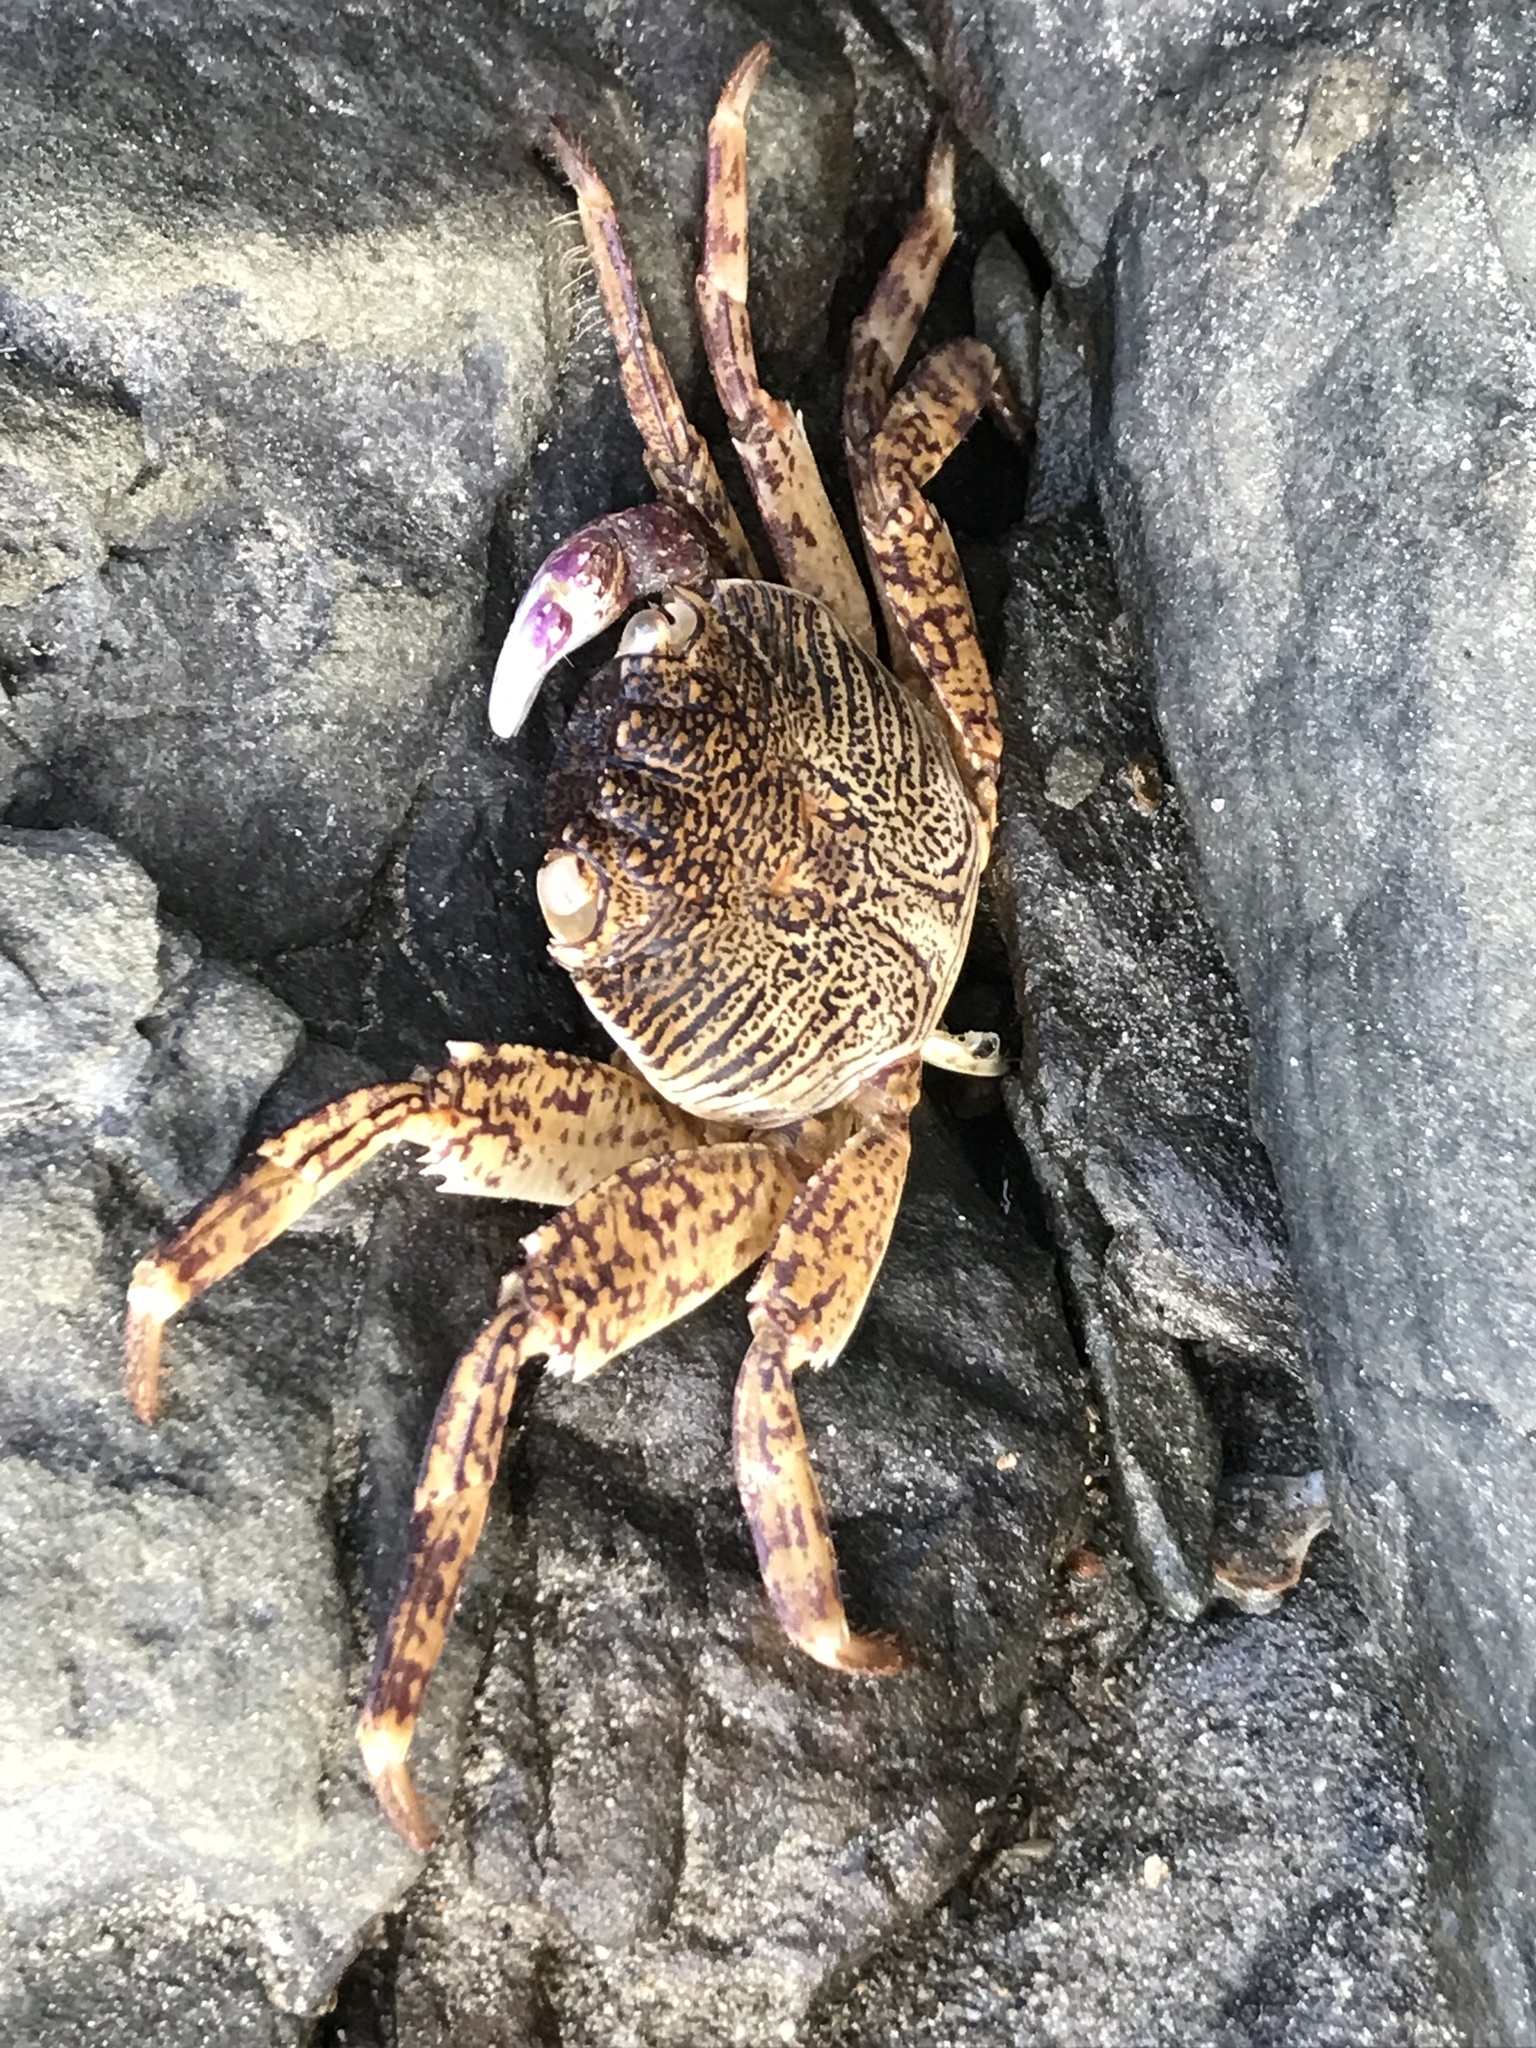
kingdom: Animalia
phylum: Arthropoda
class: Malacostraca
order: Decapoda
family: Grapsidae
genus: Grapsus
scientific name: Grapsus albolineatus
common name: Mottled lightfoot crab
